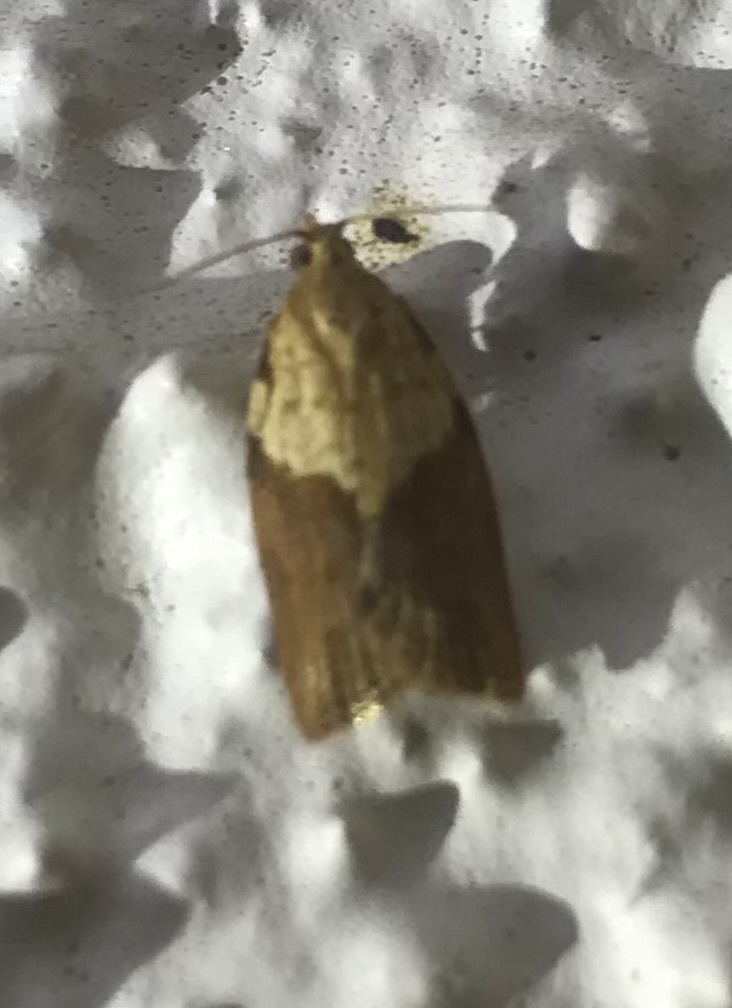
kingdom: Animalia
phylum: Arthropoda
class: Insecta
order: Lepidoptera
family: Tortricidae
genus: Epiphyas
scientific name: Epiphyas postvittana
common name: Light brown apple moth
